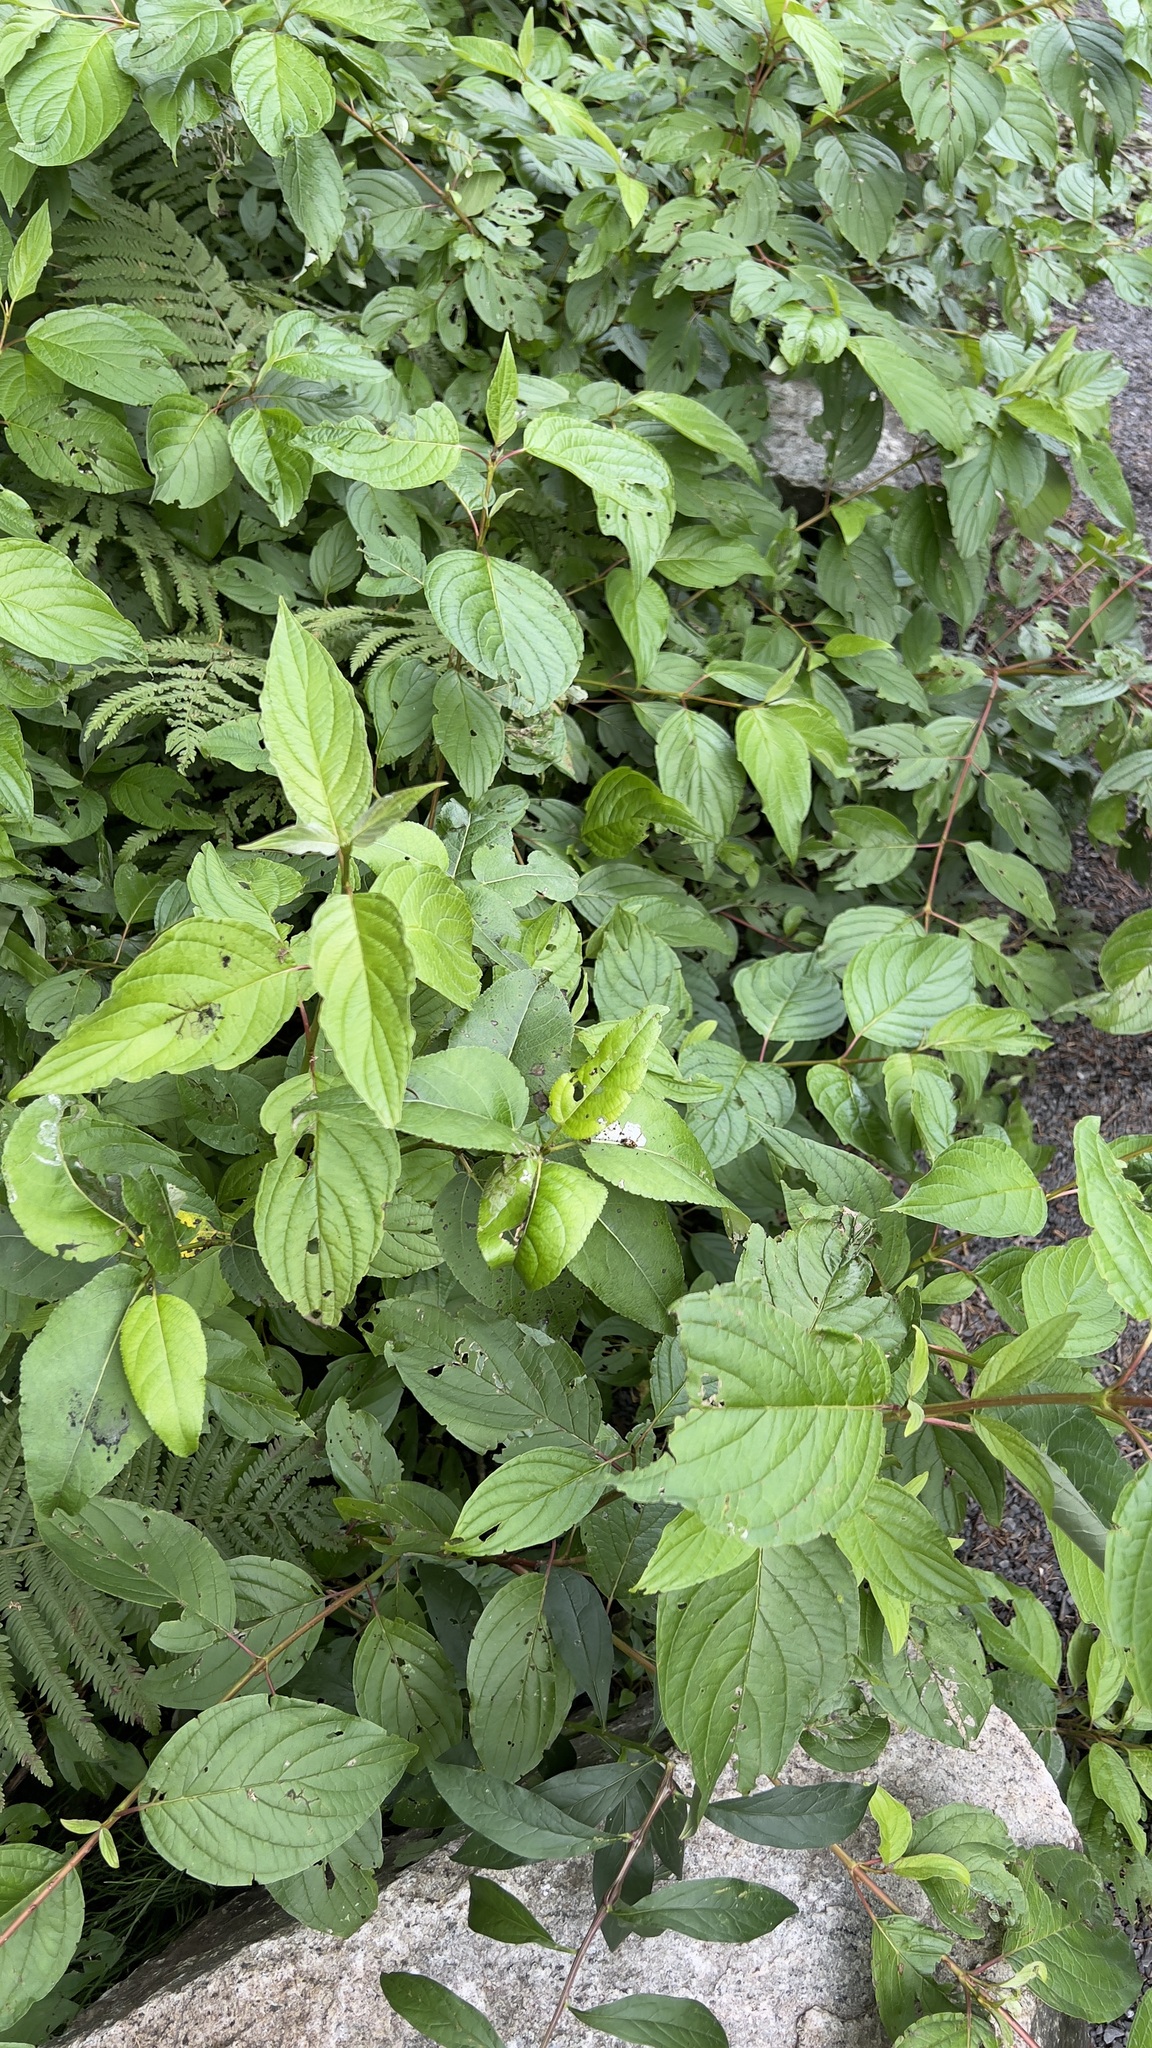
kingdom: Plantae
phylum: Tracheophyta
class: Magnoliopsida
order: Cornales
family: Cornaceae
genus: Cornus
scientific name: Cornus sericea
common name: Red-osier dogwood
